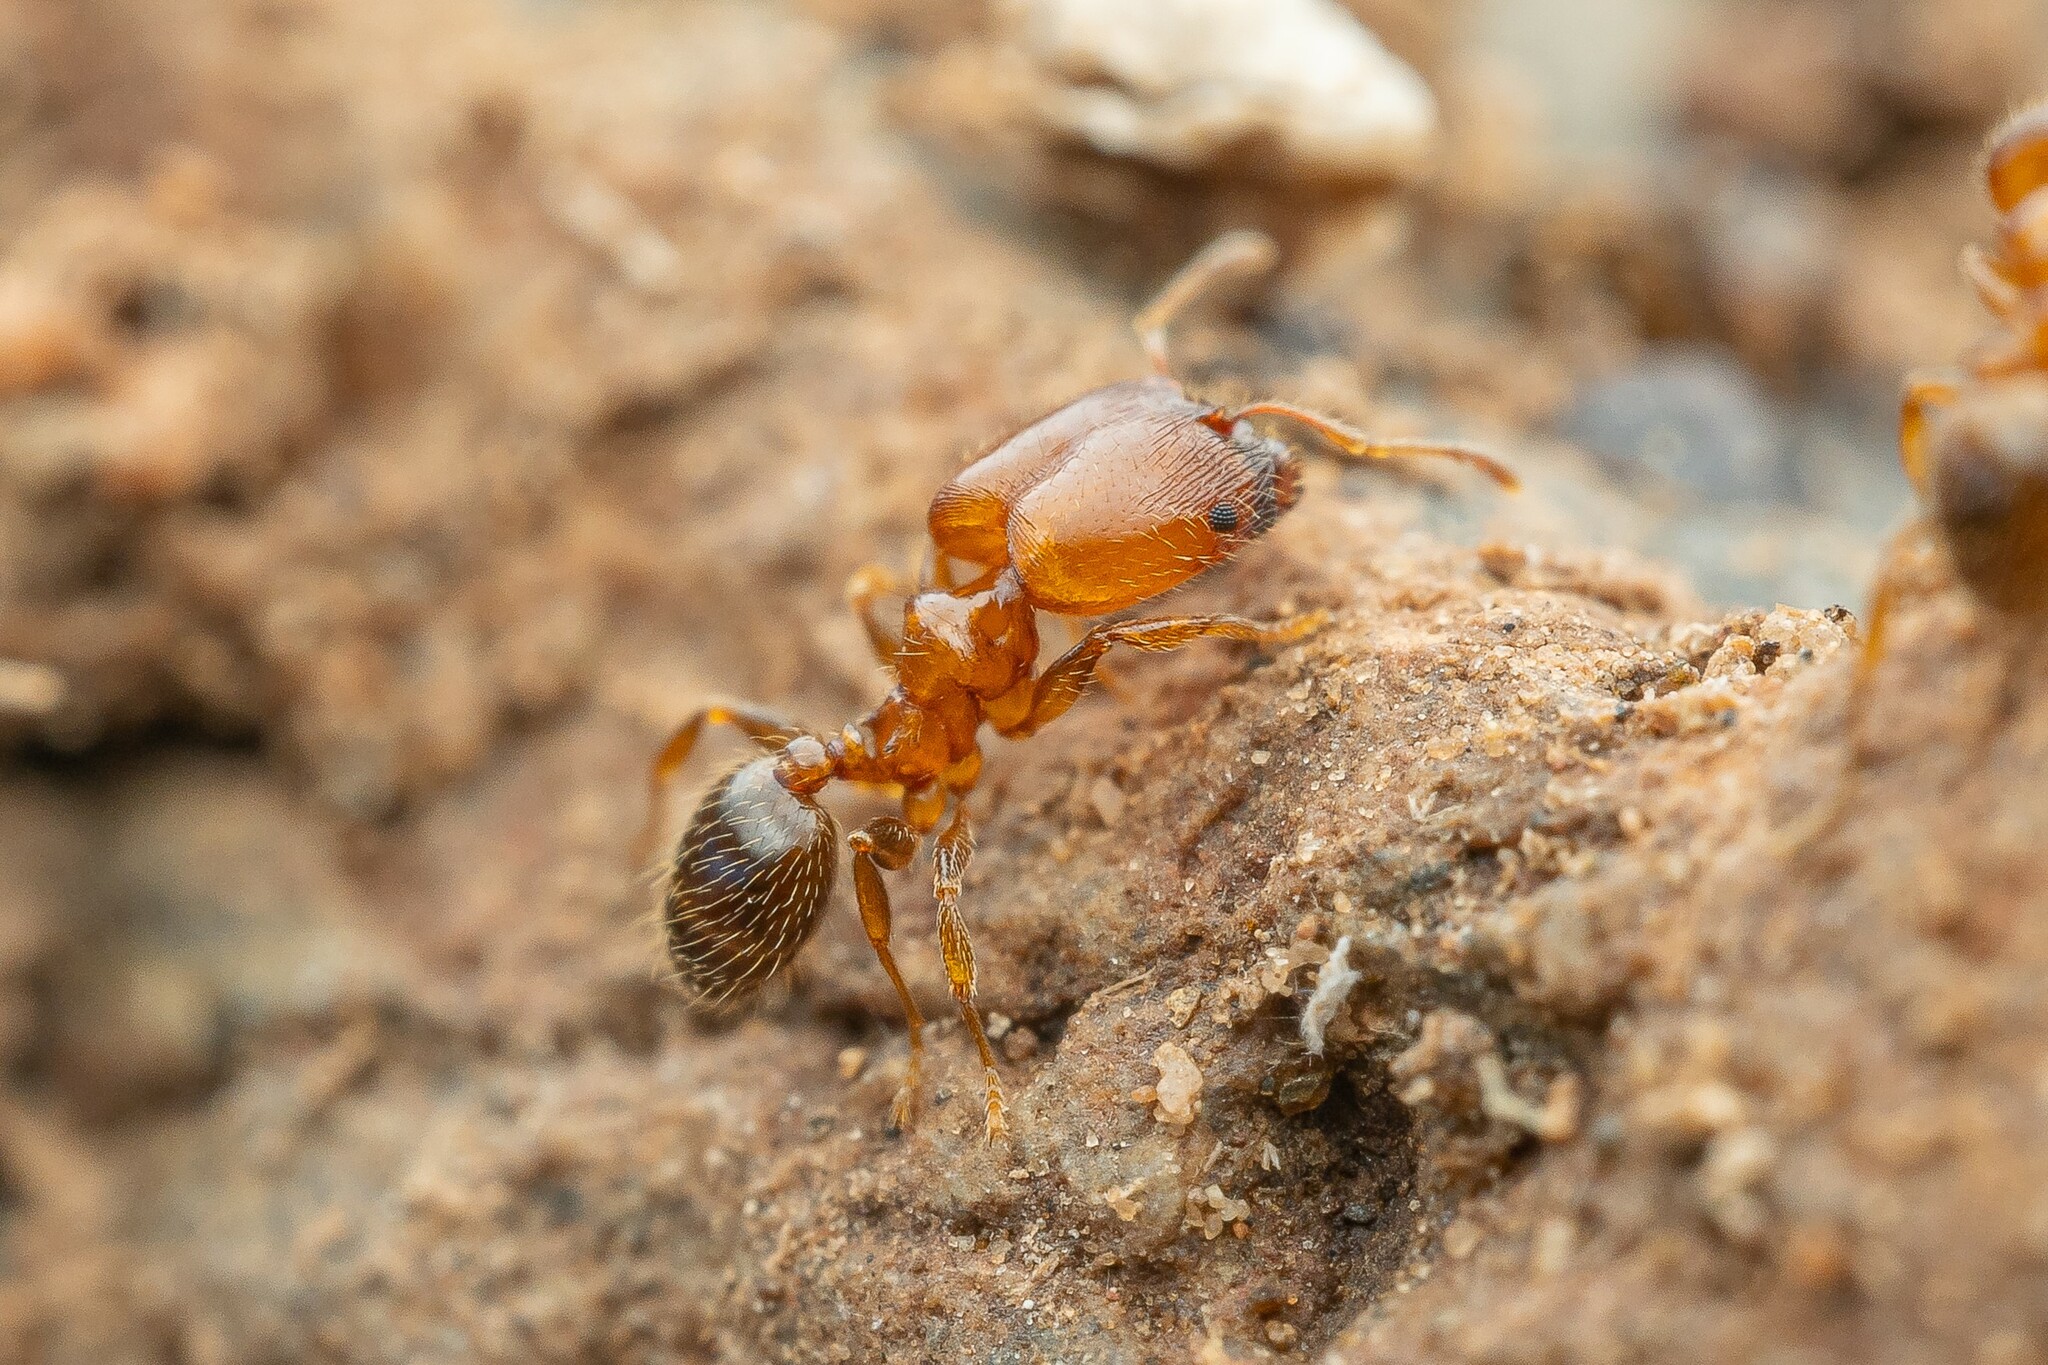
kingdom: Animalia
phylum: Arthropoda
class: Insecta
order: Hymenoptera
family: Formicidae
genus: Pheidole
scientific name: Pheidole
